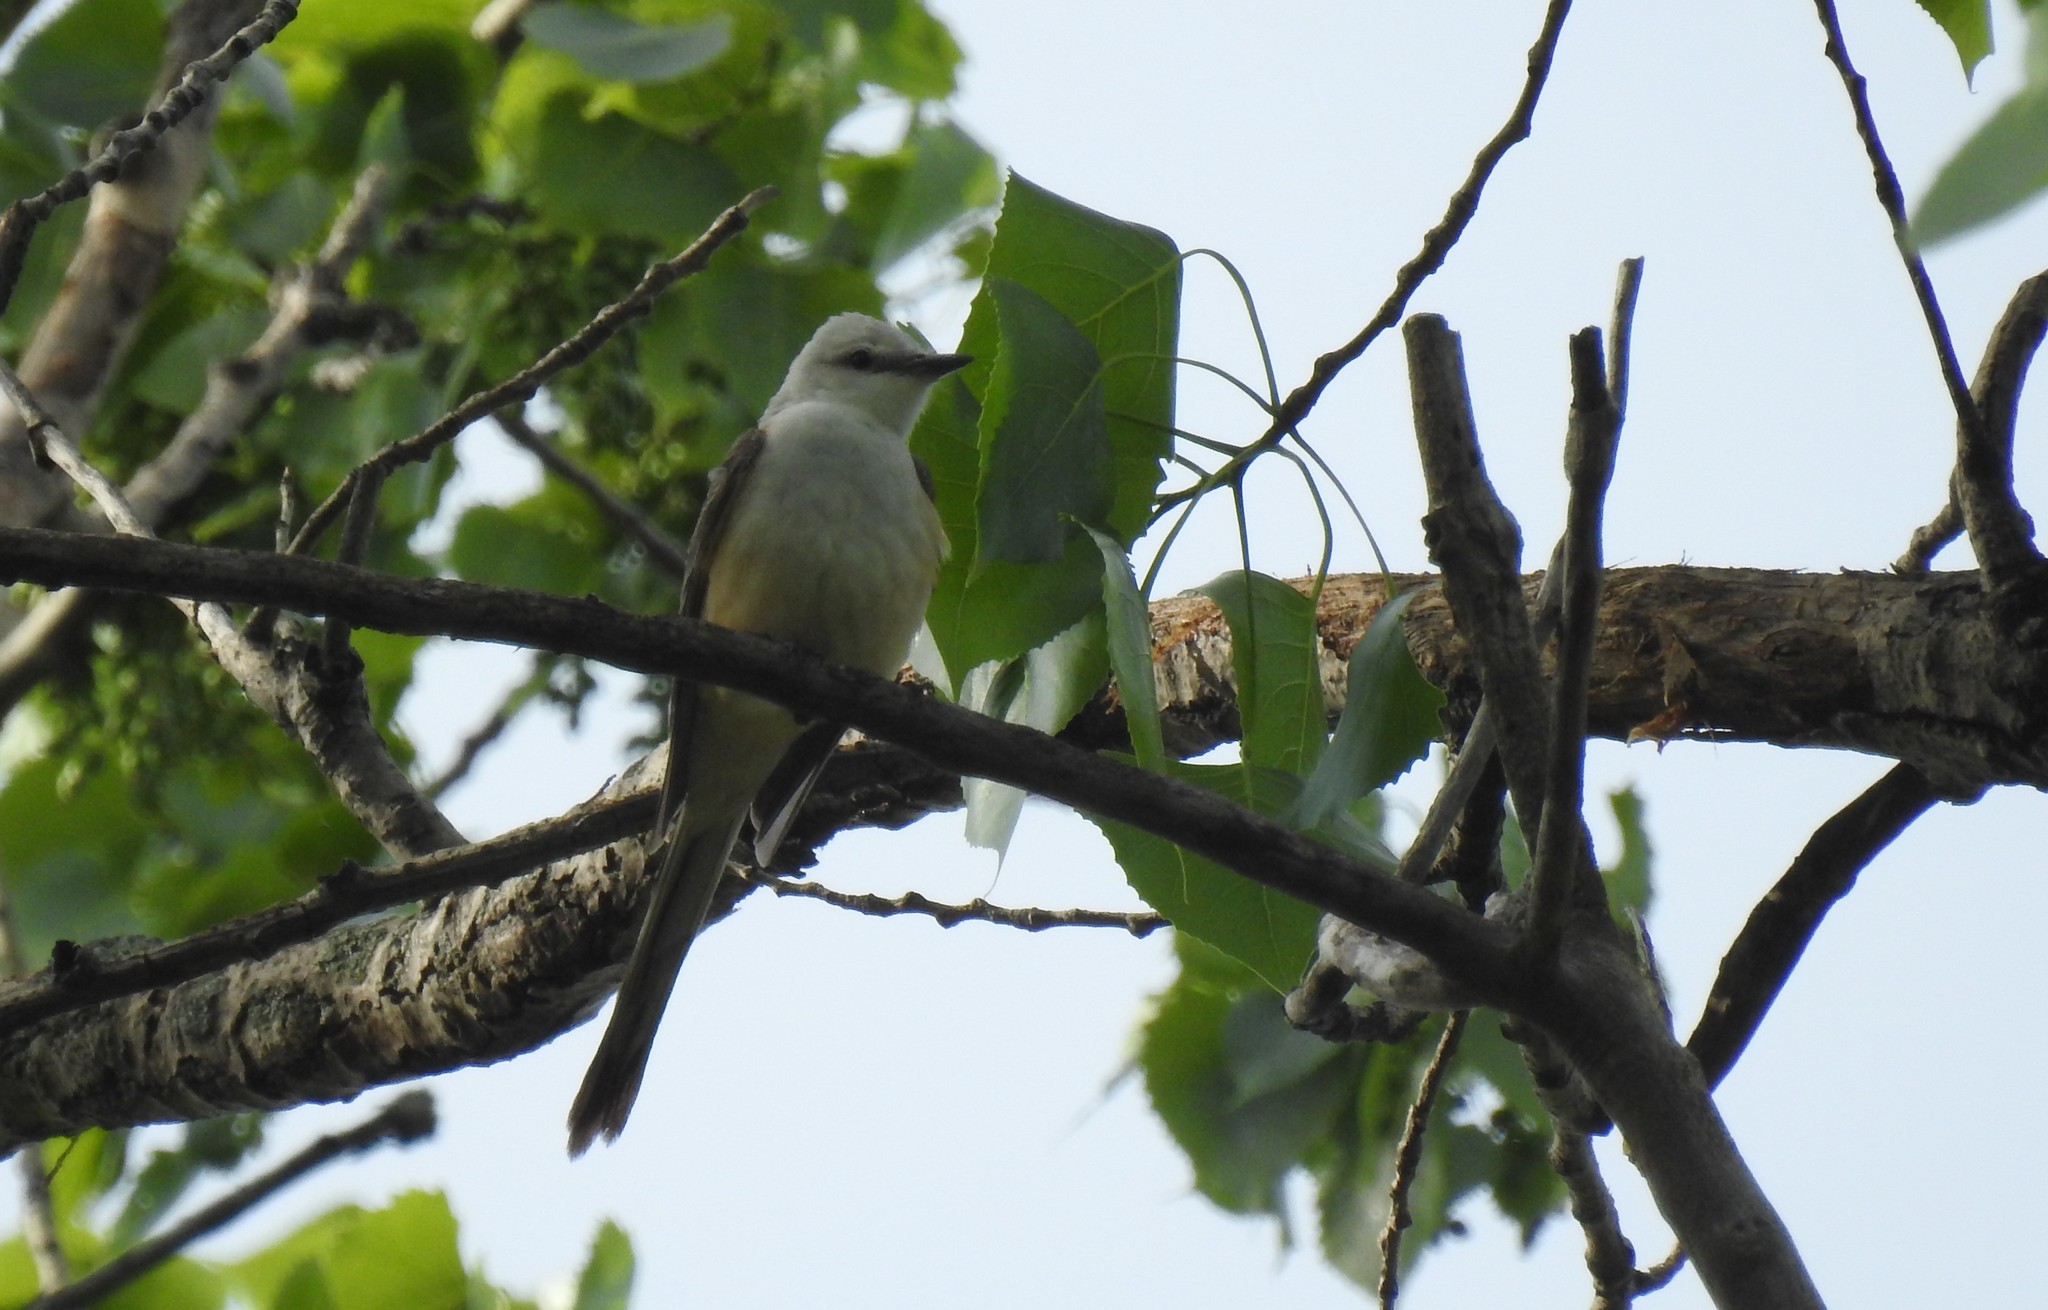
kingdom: Animalia
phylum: Chordata
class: Aves
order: Passeriformes
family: Tyrannidae
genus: Tyrannus
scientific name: Tyrannus forficatus
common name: Scissor-tailed flycatcher
